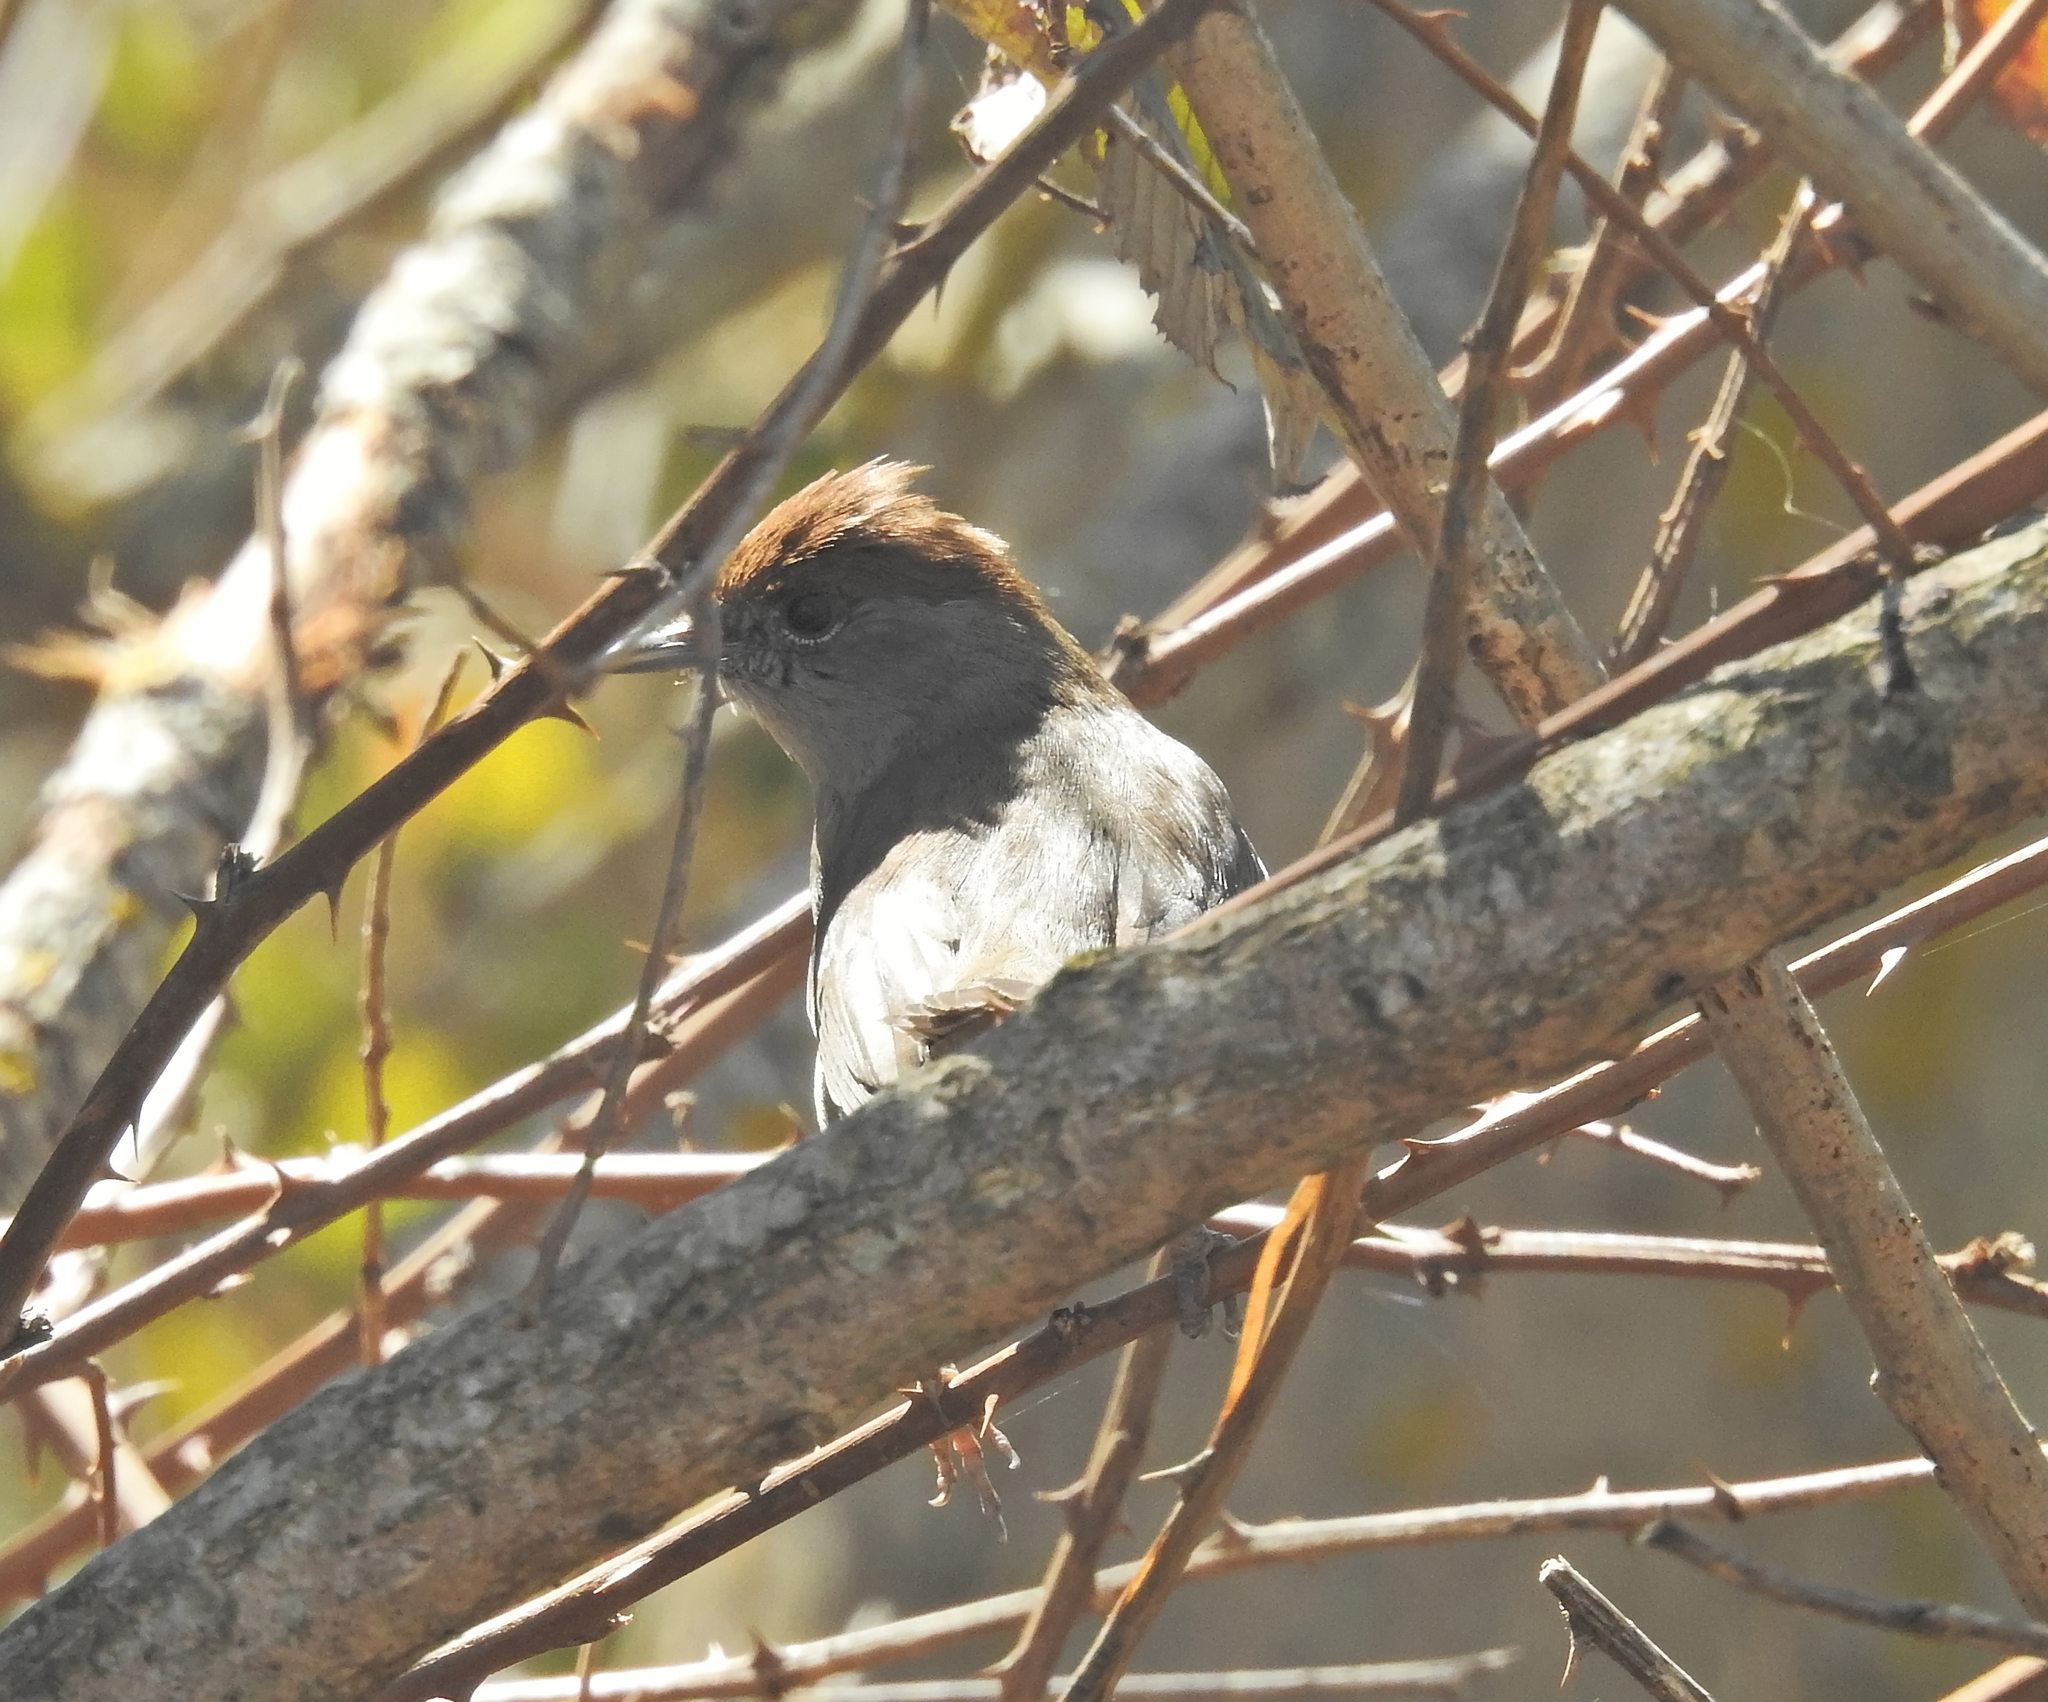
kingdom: Animalia
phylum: Chordata
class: Aves
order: Passeriformes
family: Sylviidae
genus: Sylvia
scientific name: Sylvia atricapilla
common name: Eurasian blackcap
